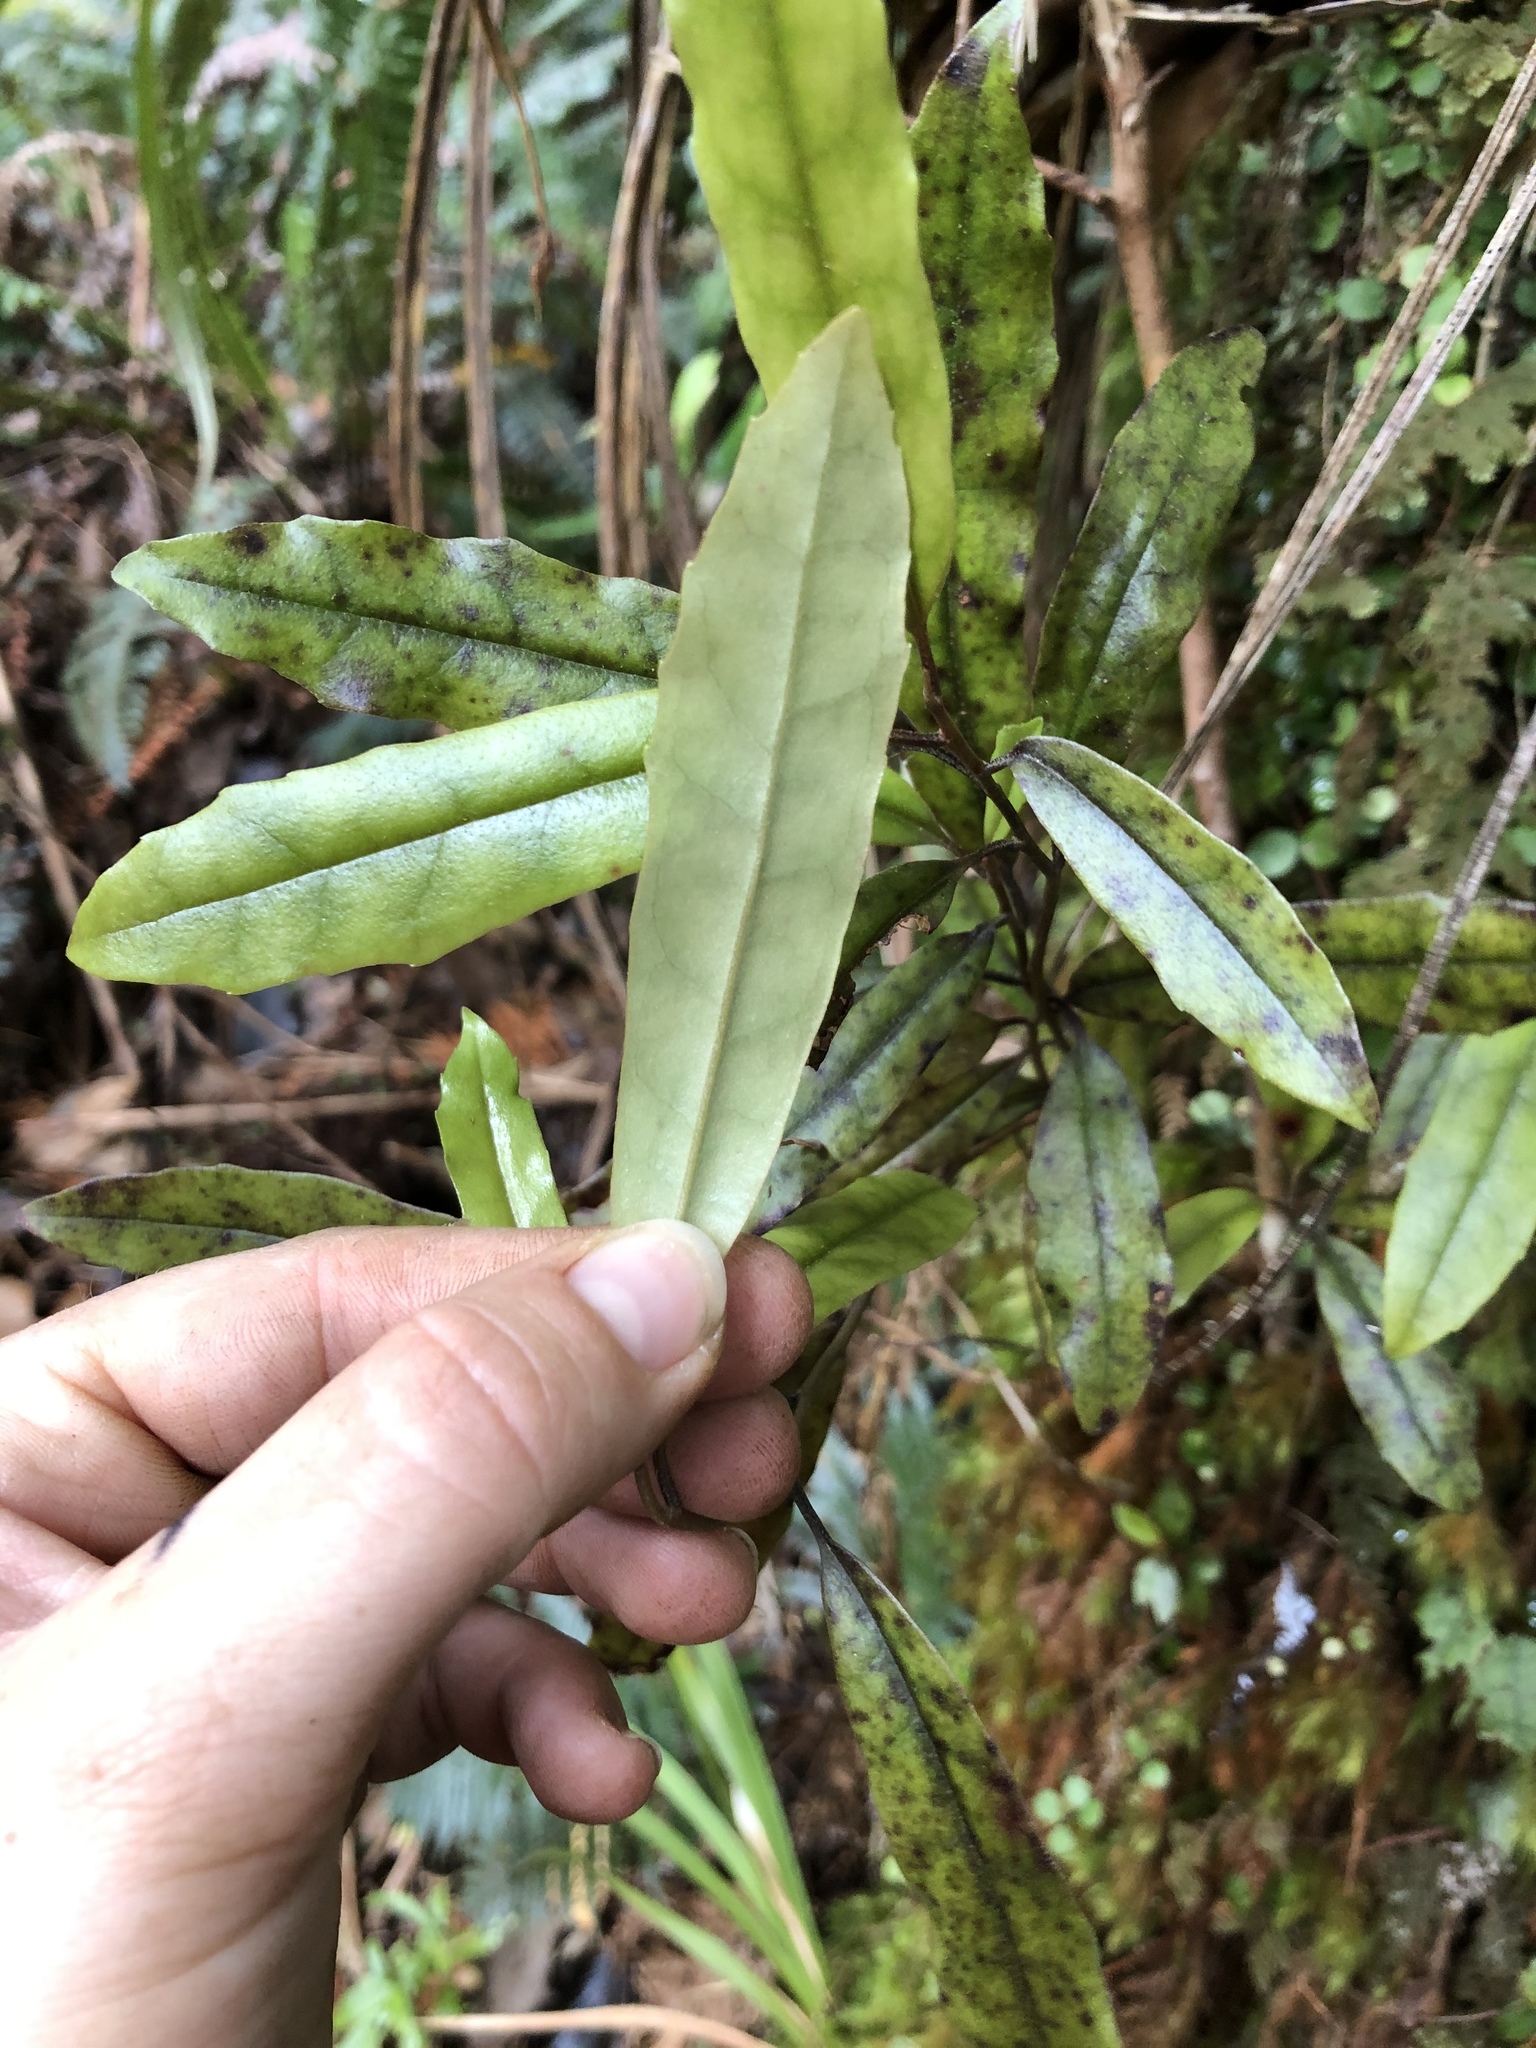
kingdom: Plantae
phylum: Tracheophyta
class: Magnoliopsida
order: Paracryphiales
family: Paracryphiaceae
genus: Quintinia
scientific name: Quintinia serrata
